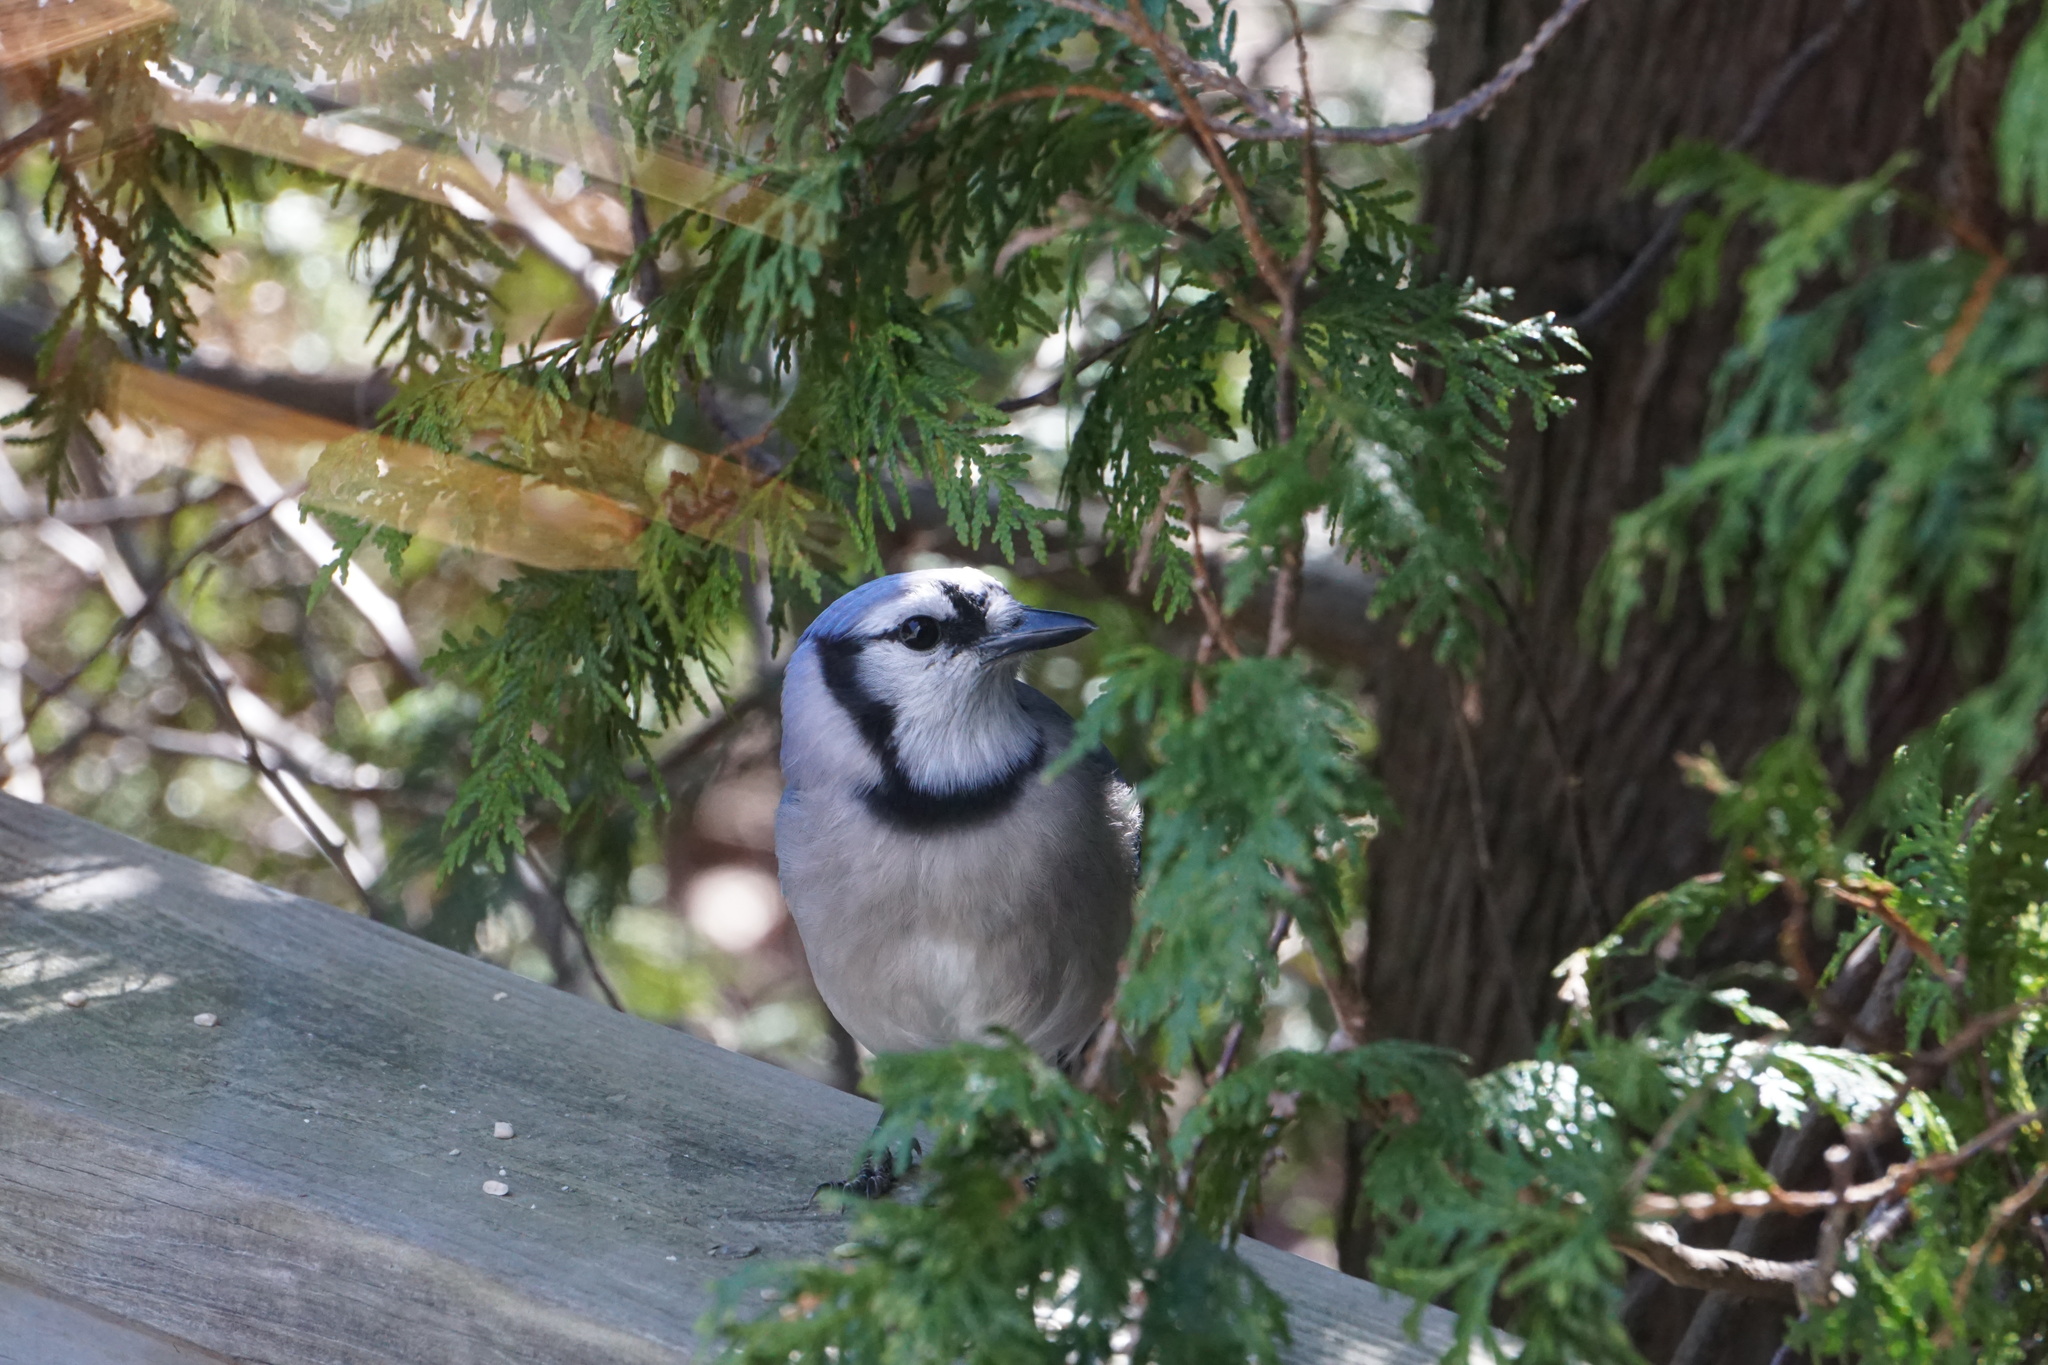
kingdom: Animalia
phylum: Chordata
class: Aves
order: Passeriformes
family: Corvidae
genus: Cyanocitta
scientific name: Cyanocitta cristata
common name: Blue jay
